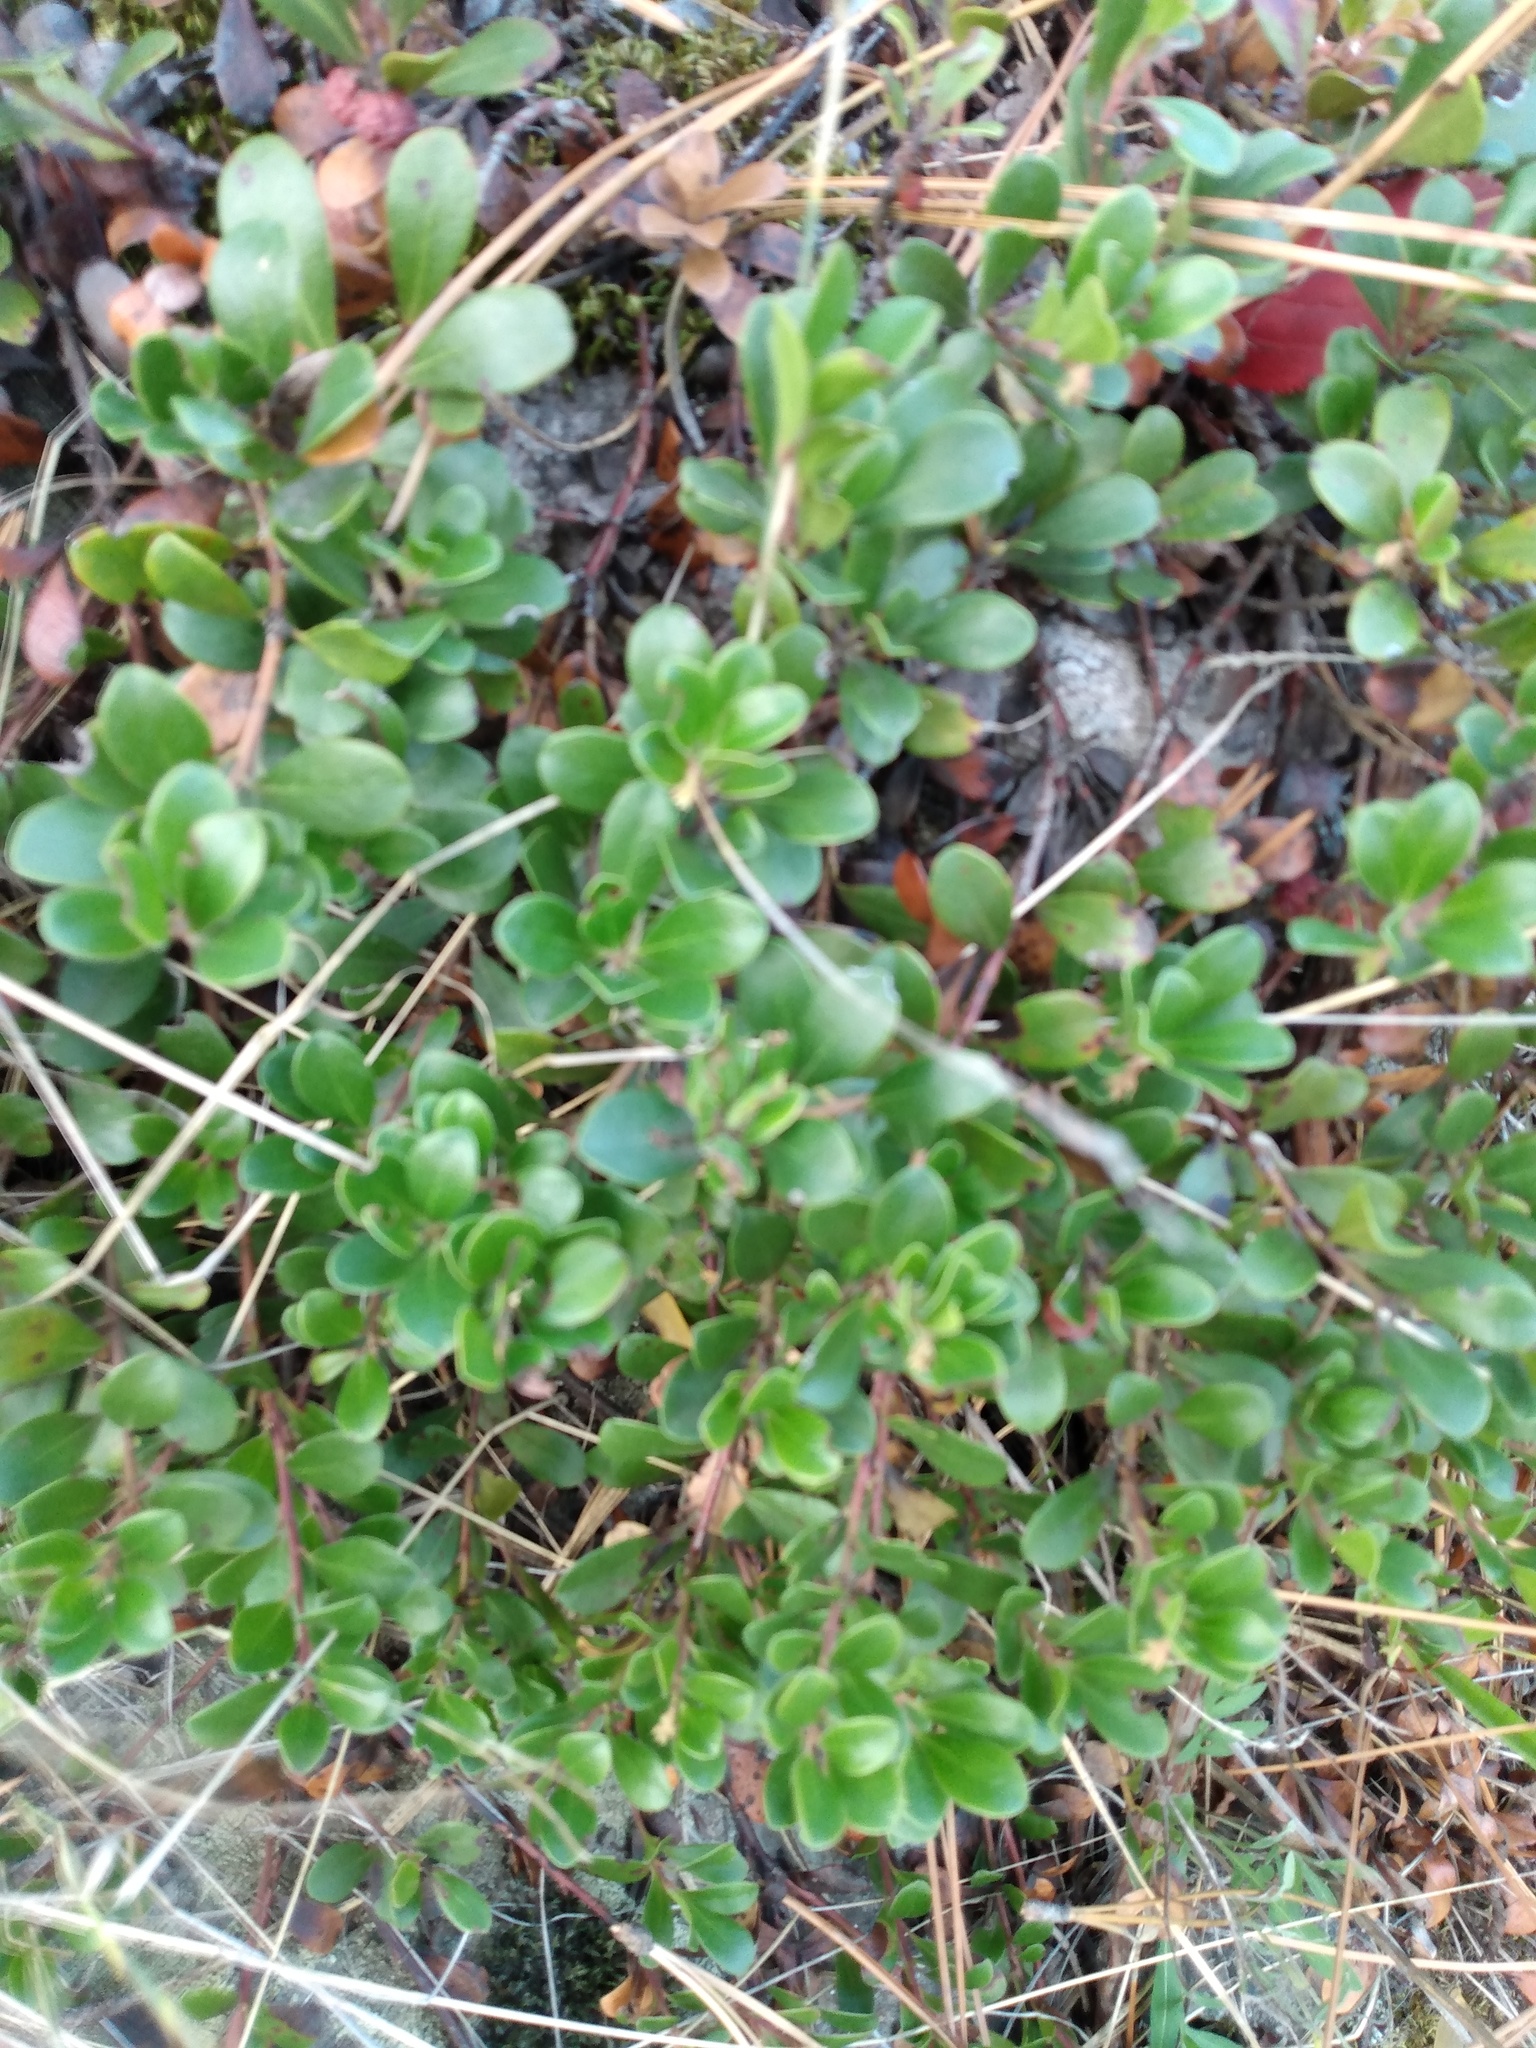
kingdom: Plantae
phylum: Tracheophyta
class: Magnoliopsida
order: Ericales
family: Ericaceae
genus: Arctostaphylos
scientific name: Arctostaphylos uva-ursi
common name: Bearberry
